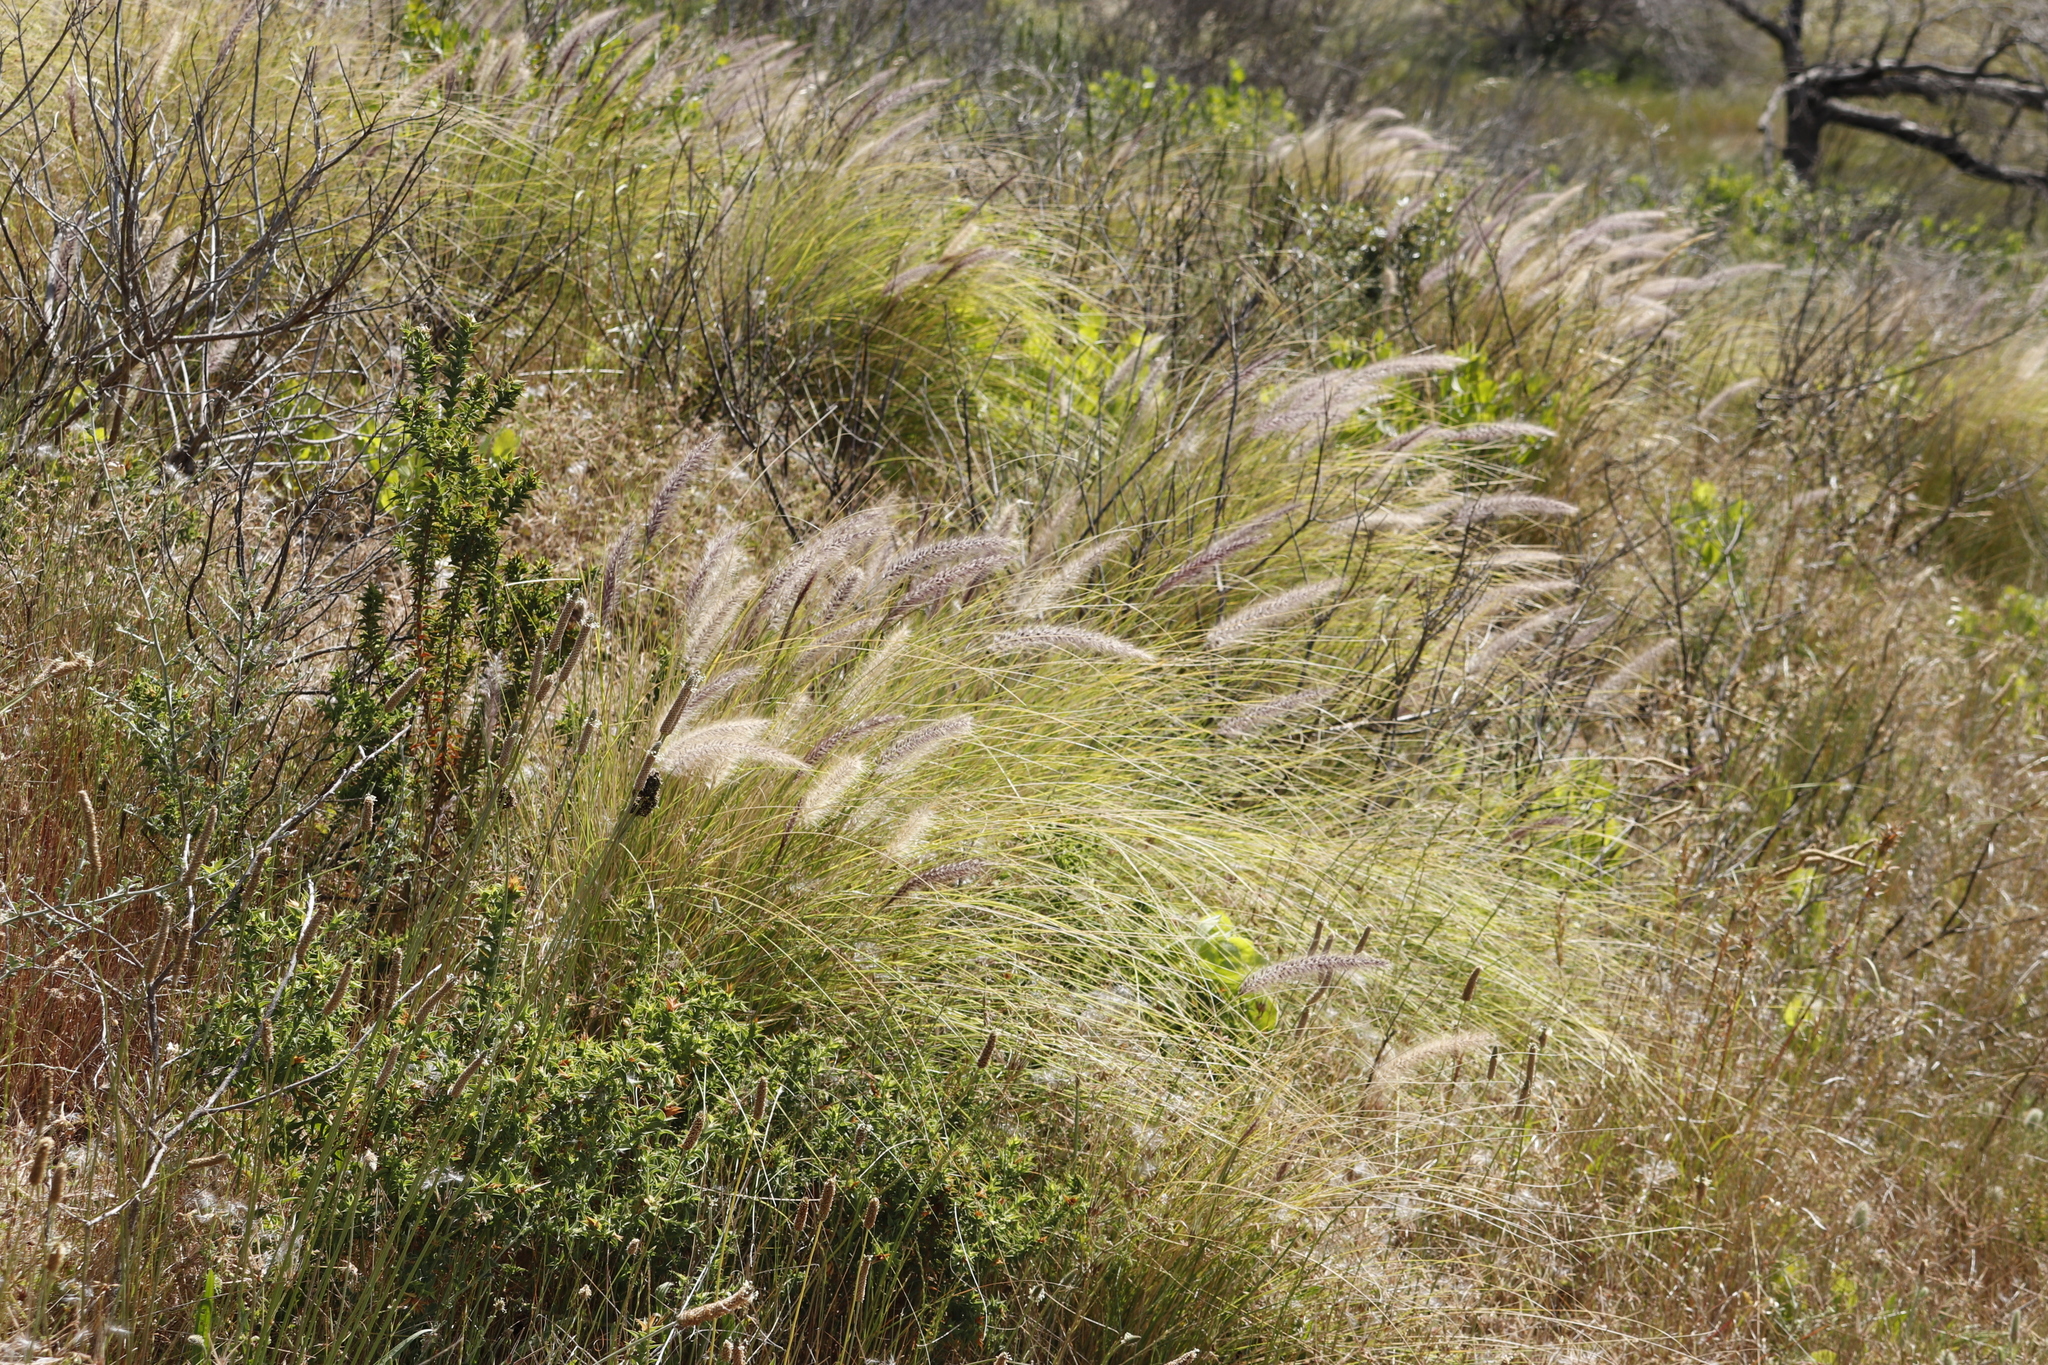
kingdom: Plantae
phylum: Tracheophyta
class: Liliopsida
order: Poales
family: Poaceae
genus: Cenchrus
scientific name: Cenchrus setaceus
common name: Crimson fountaingrass
